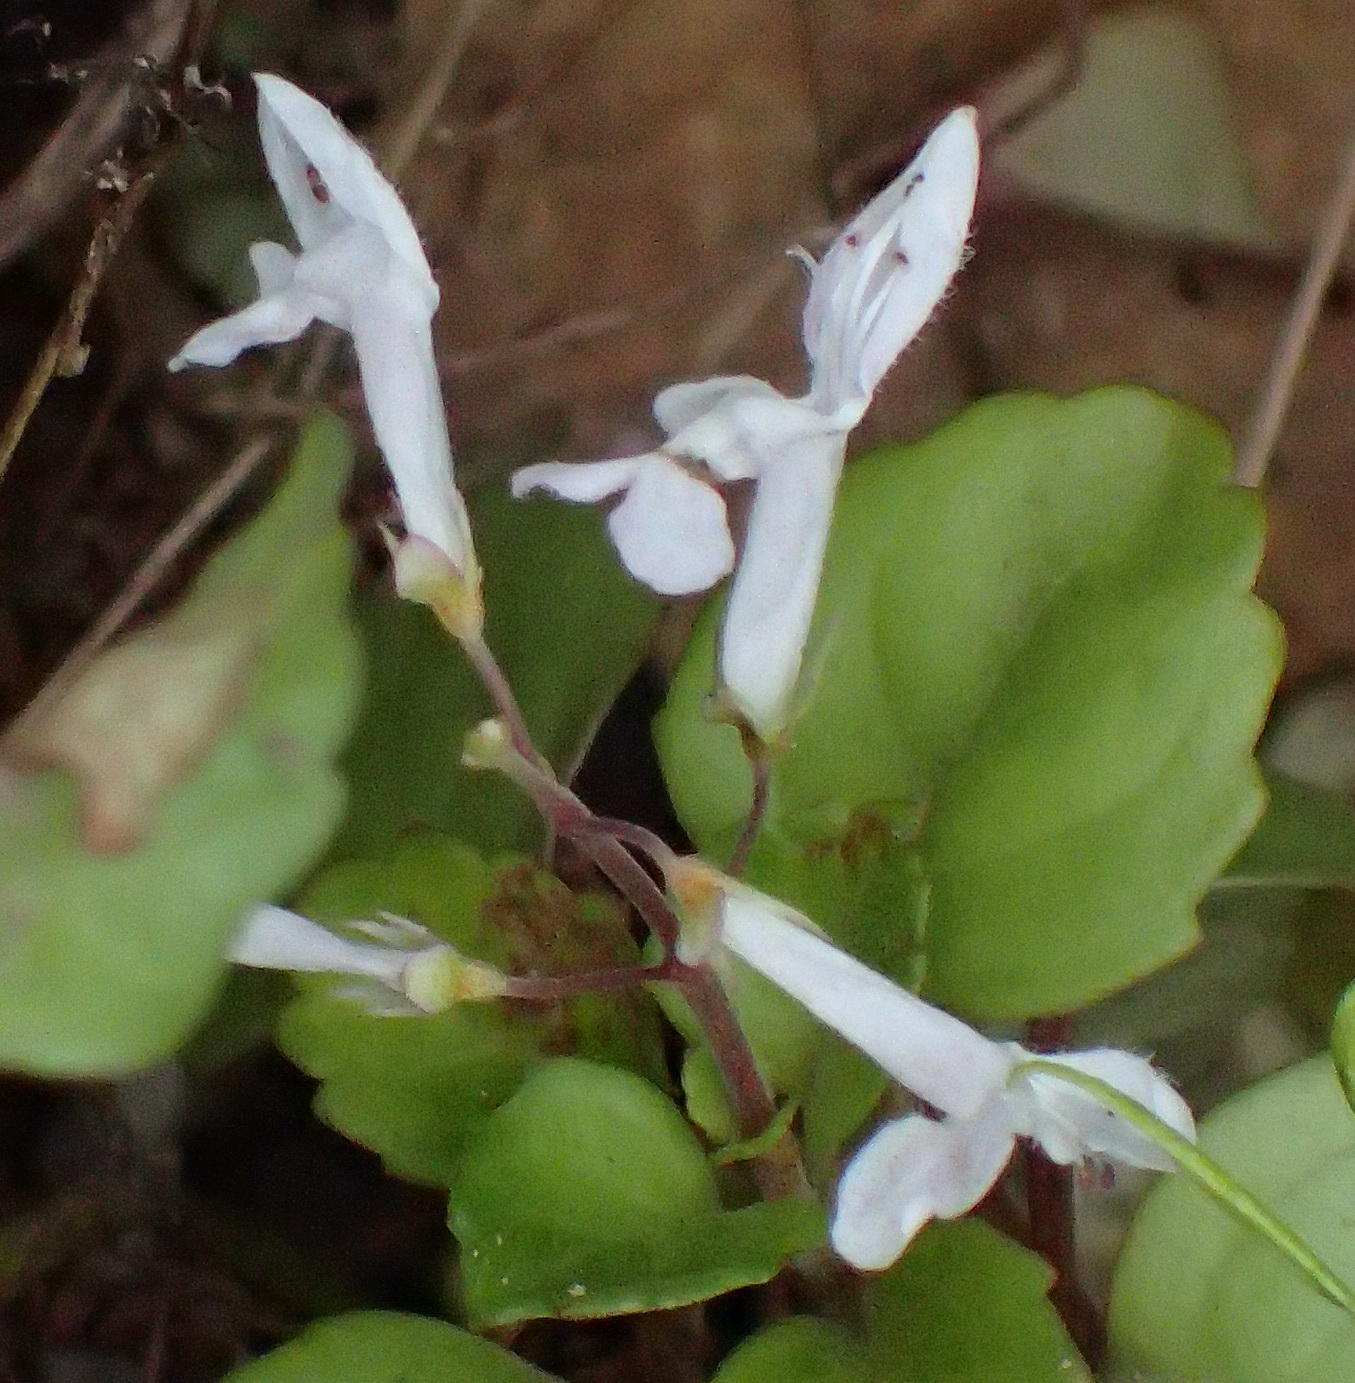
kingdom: Plantae
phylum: Tracheophyta
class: Magnoliopsida
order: Lamiales
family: Lamiaceae
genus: Plectranthus
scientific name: Plectranthus verticillatus
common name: Whorled plectranthus
